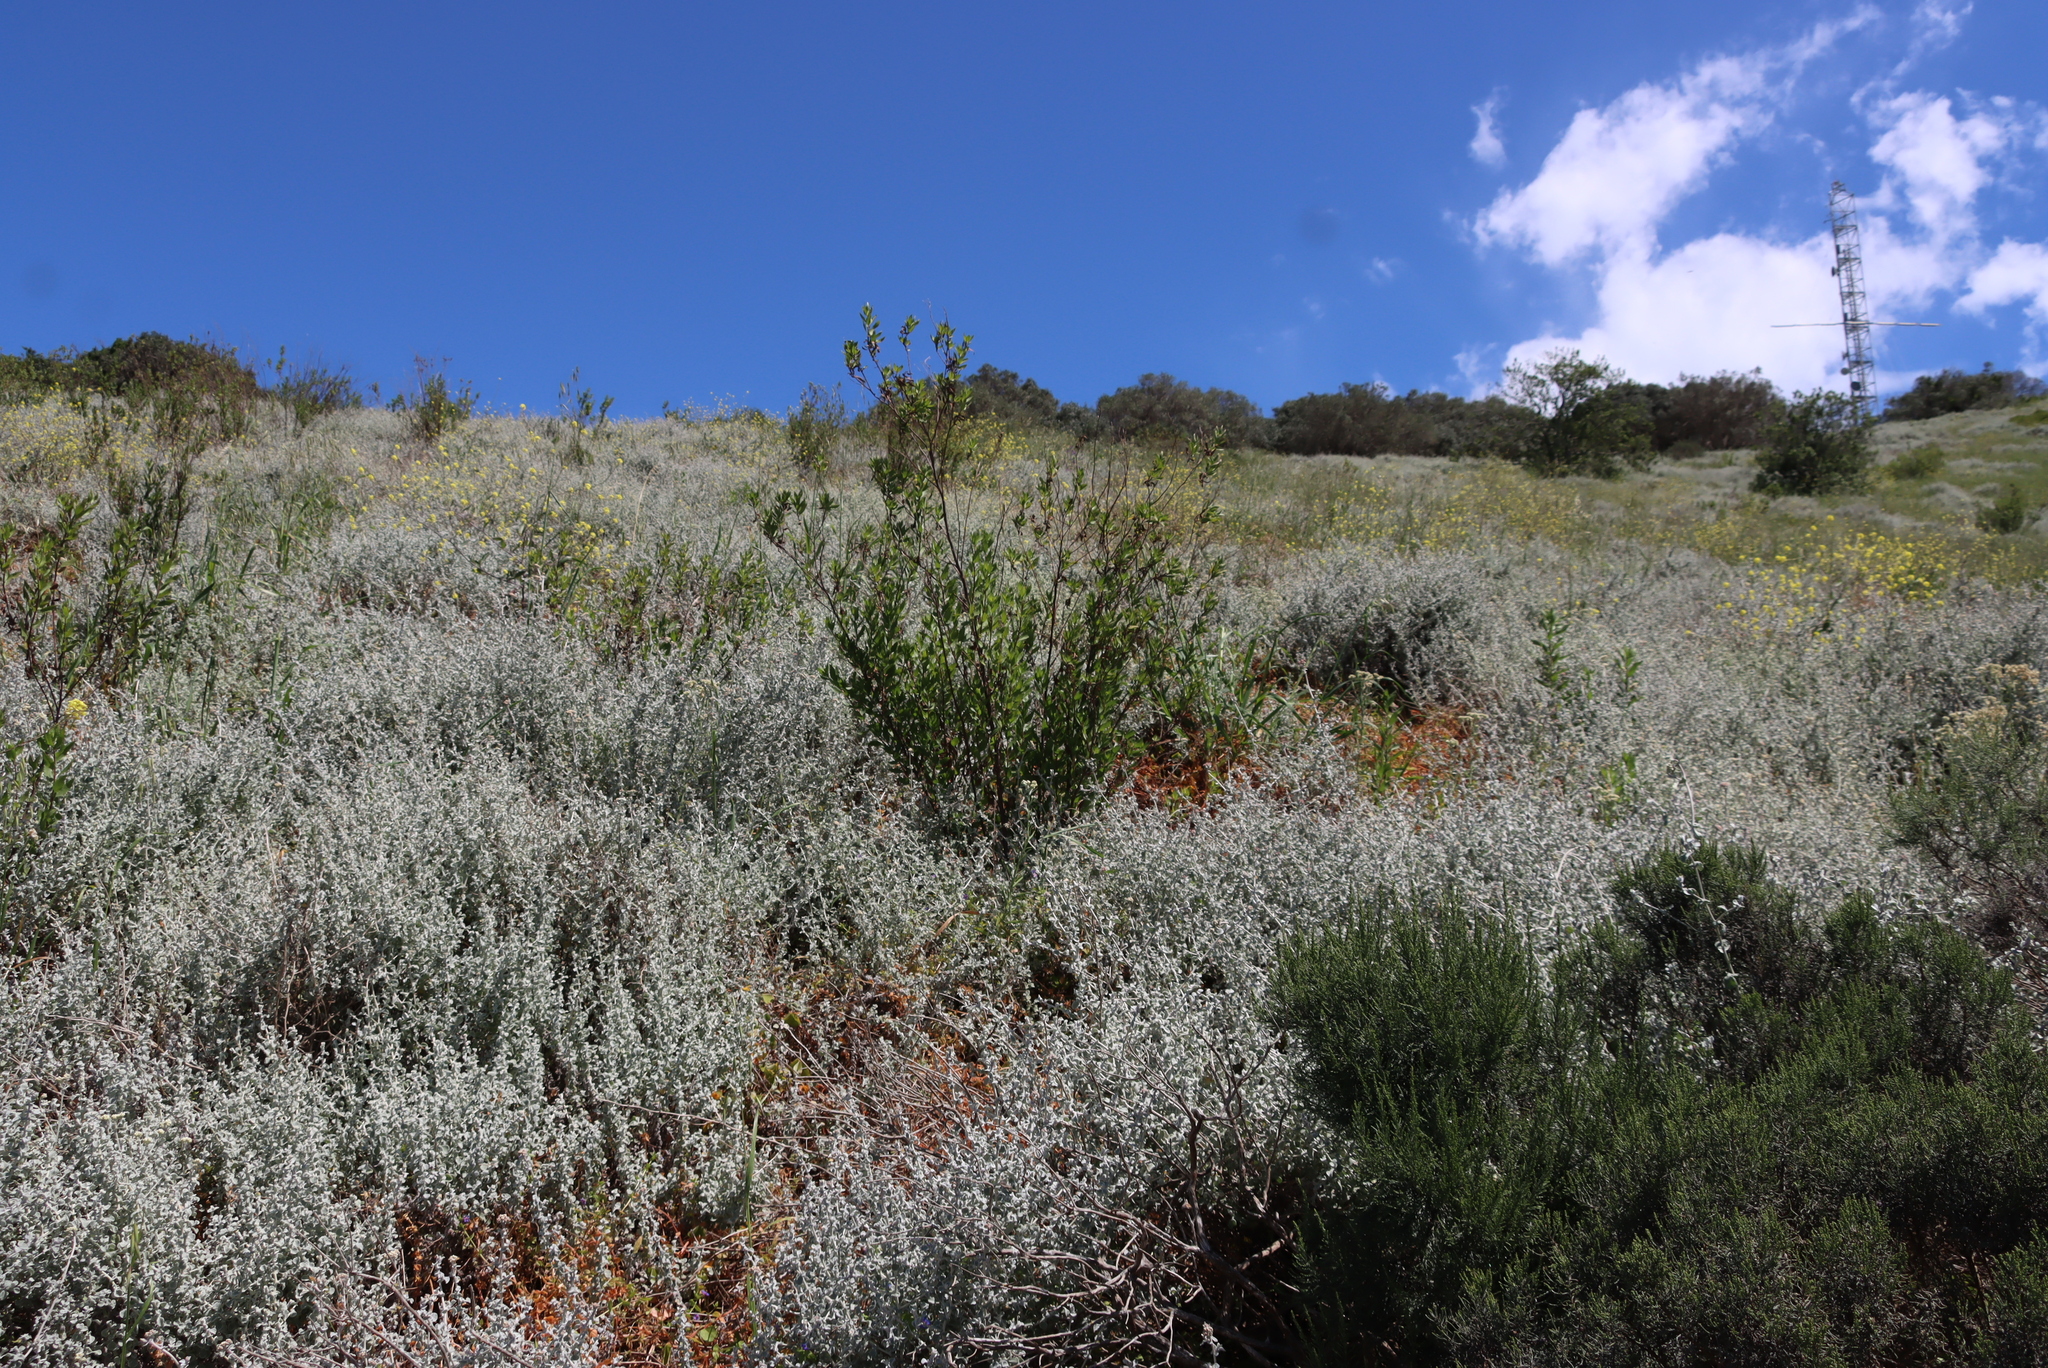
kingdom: Plantae
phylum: Tracheophyta
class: Magnoliopsida
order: Asterales
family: Asteraceae
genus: Nidorella
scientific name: Nidorella ivifolia
